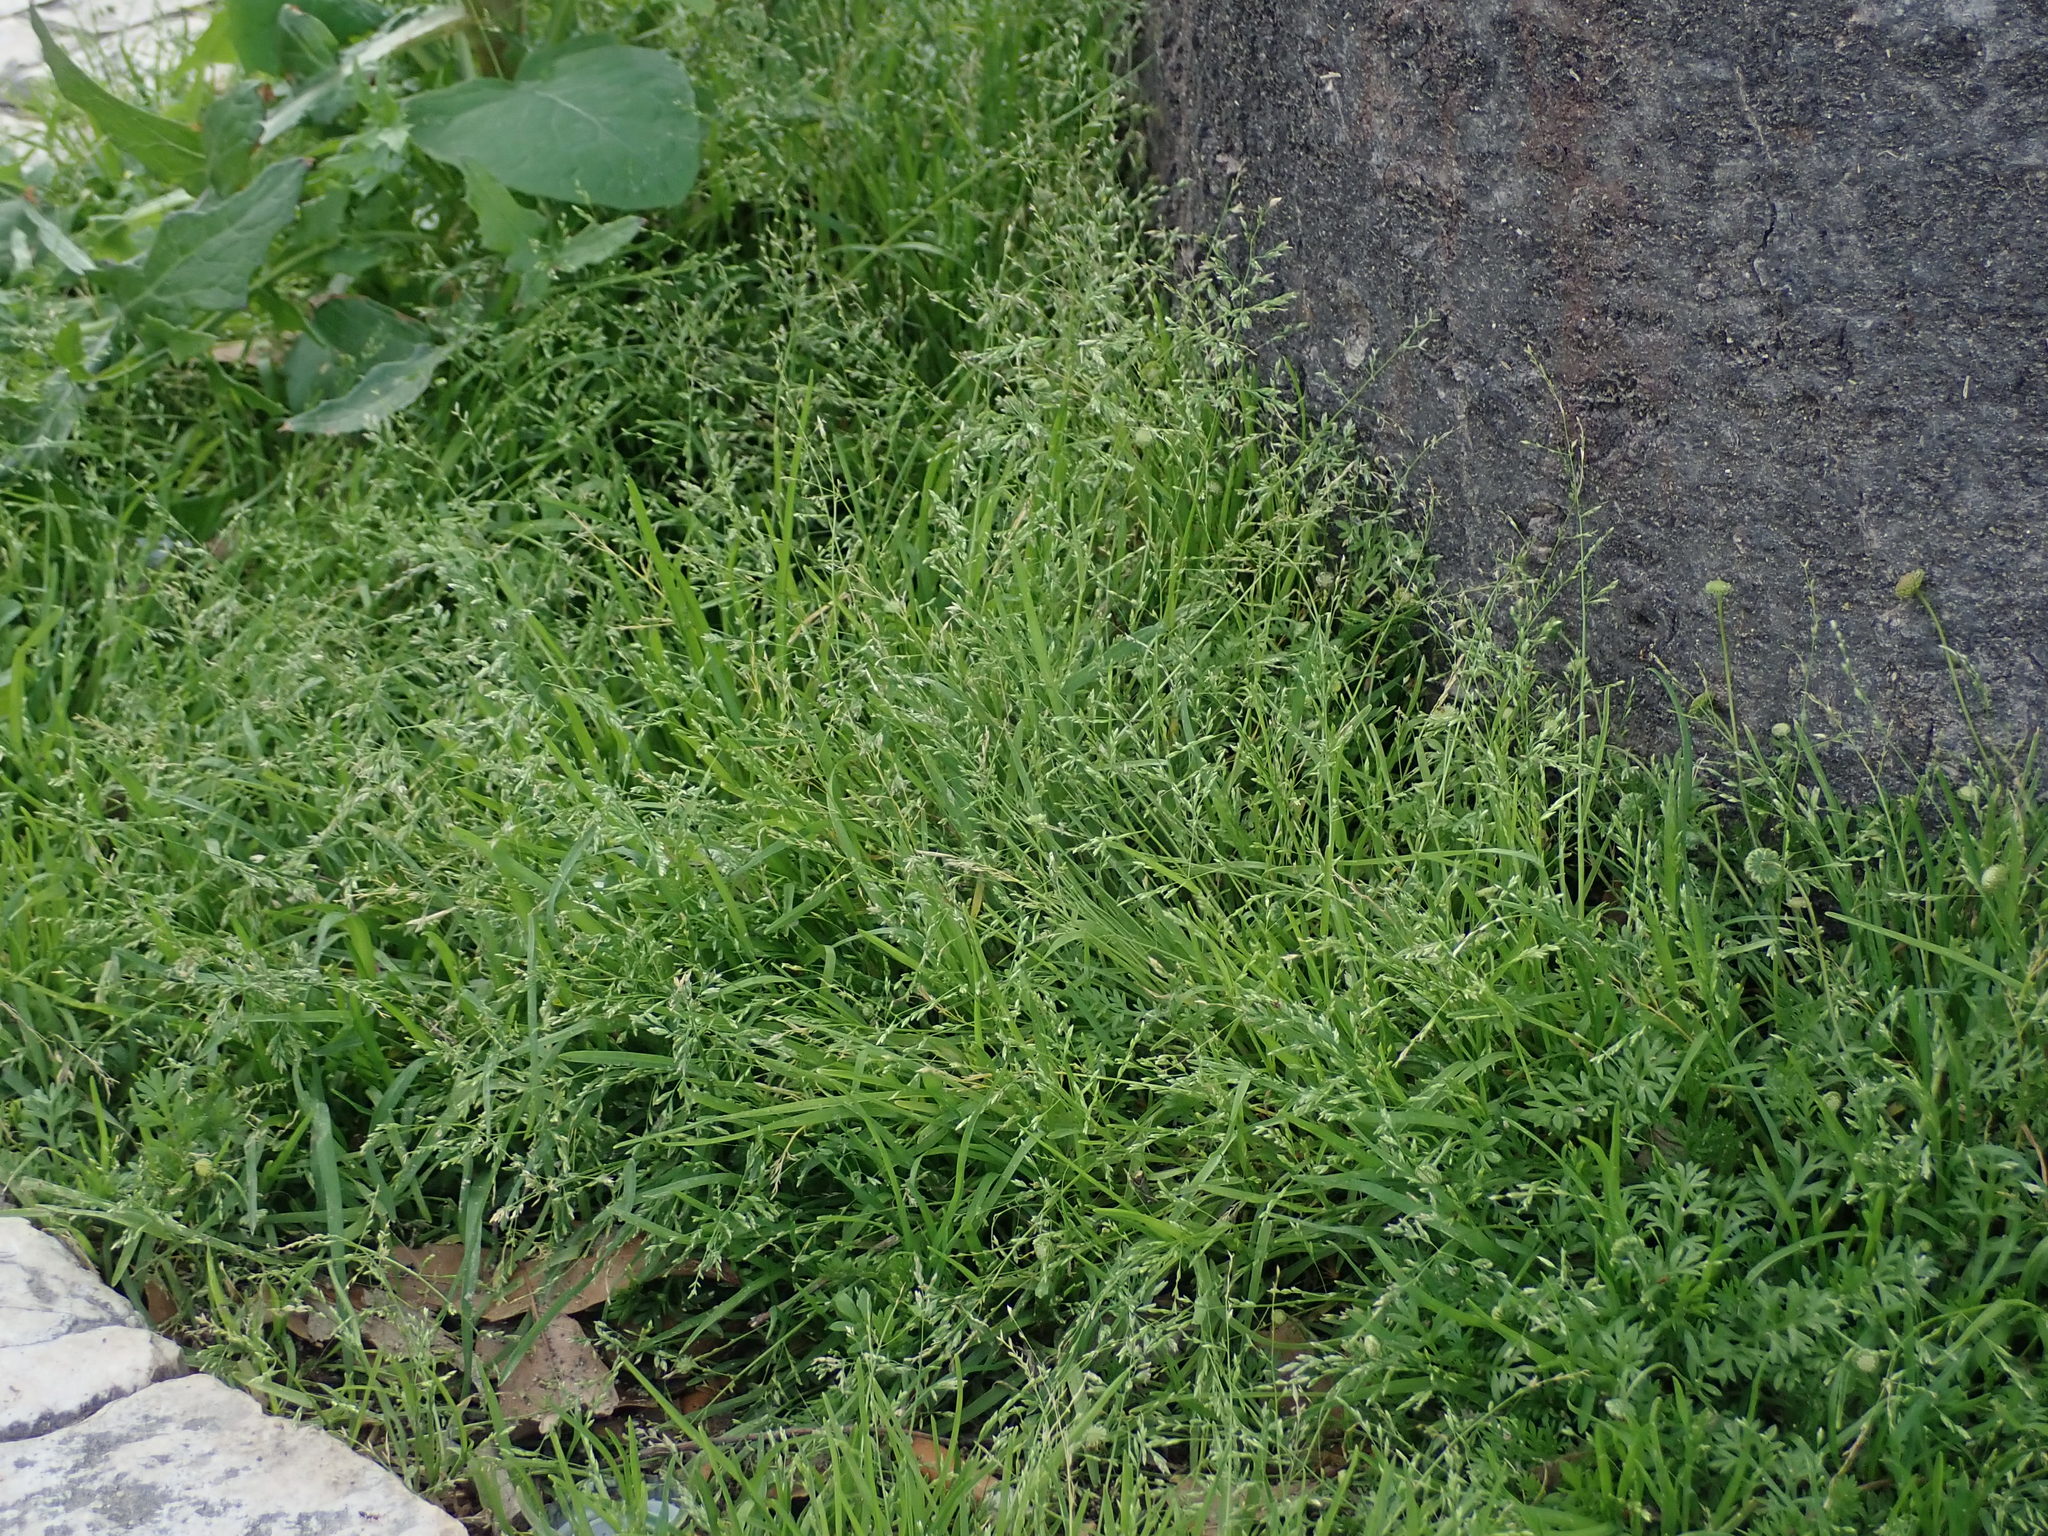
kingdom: Plantae
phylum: Tracheophyta
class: Liliopsida
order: Poales
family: Poaceae
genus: Poa
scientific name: Poa infirma
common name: Weak bluegrass
